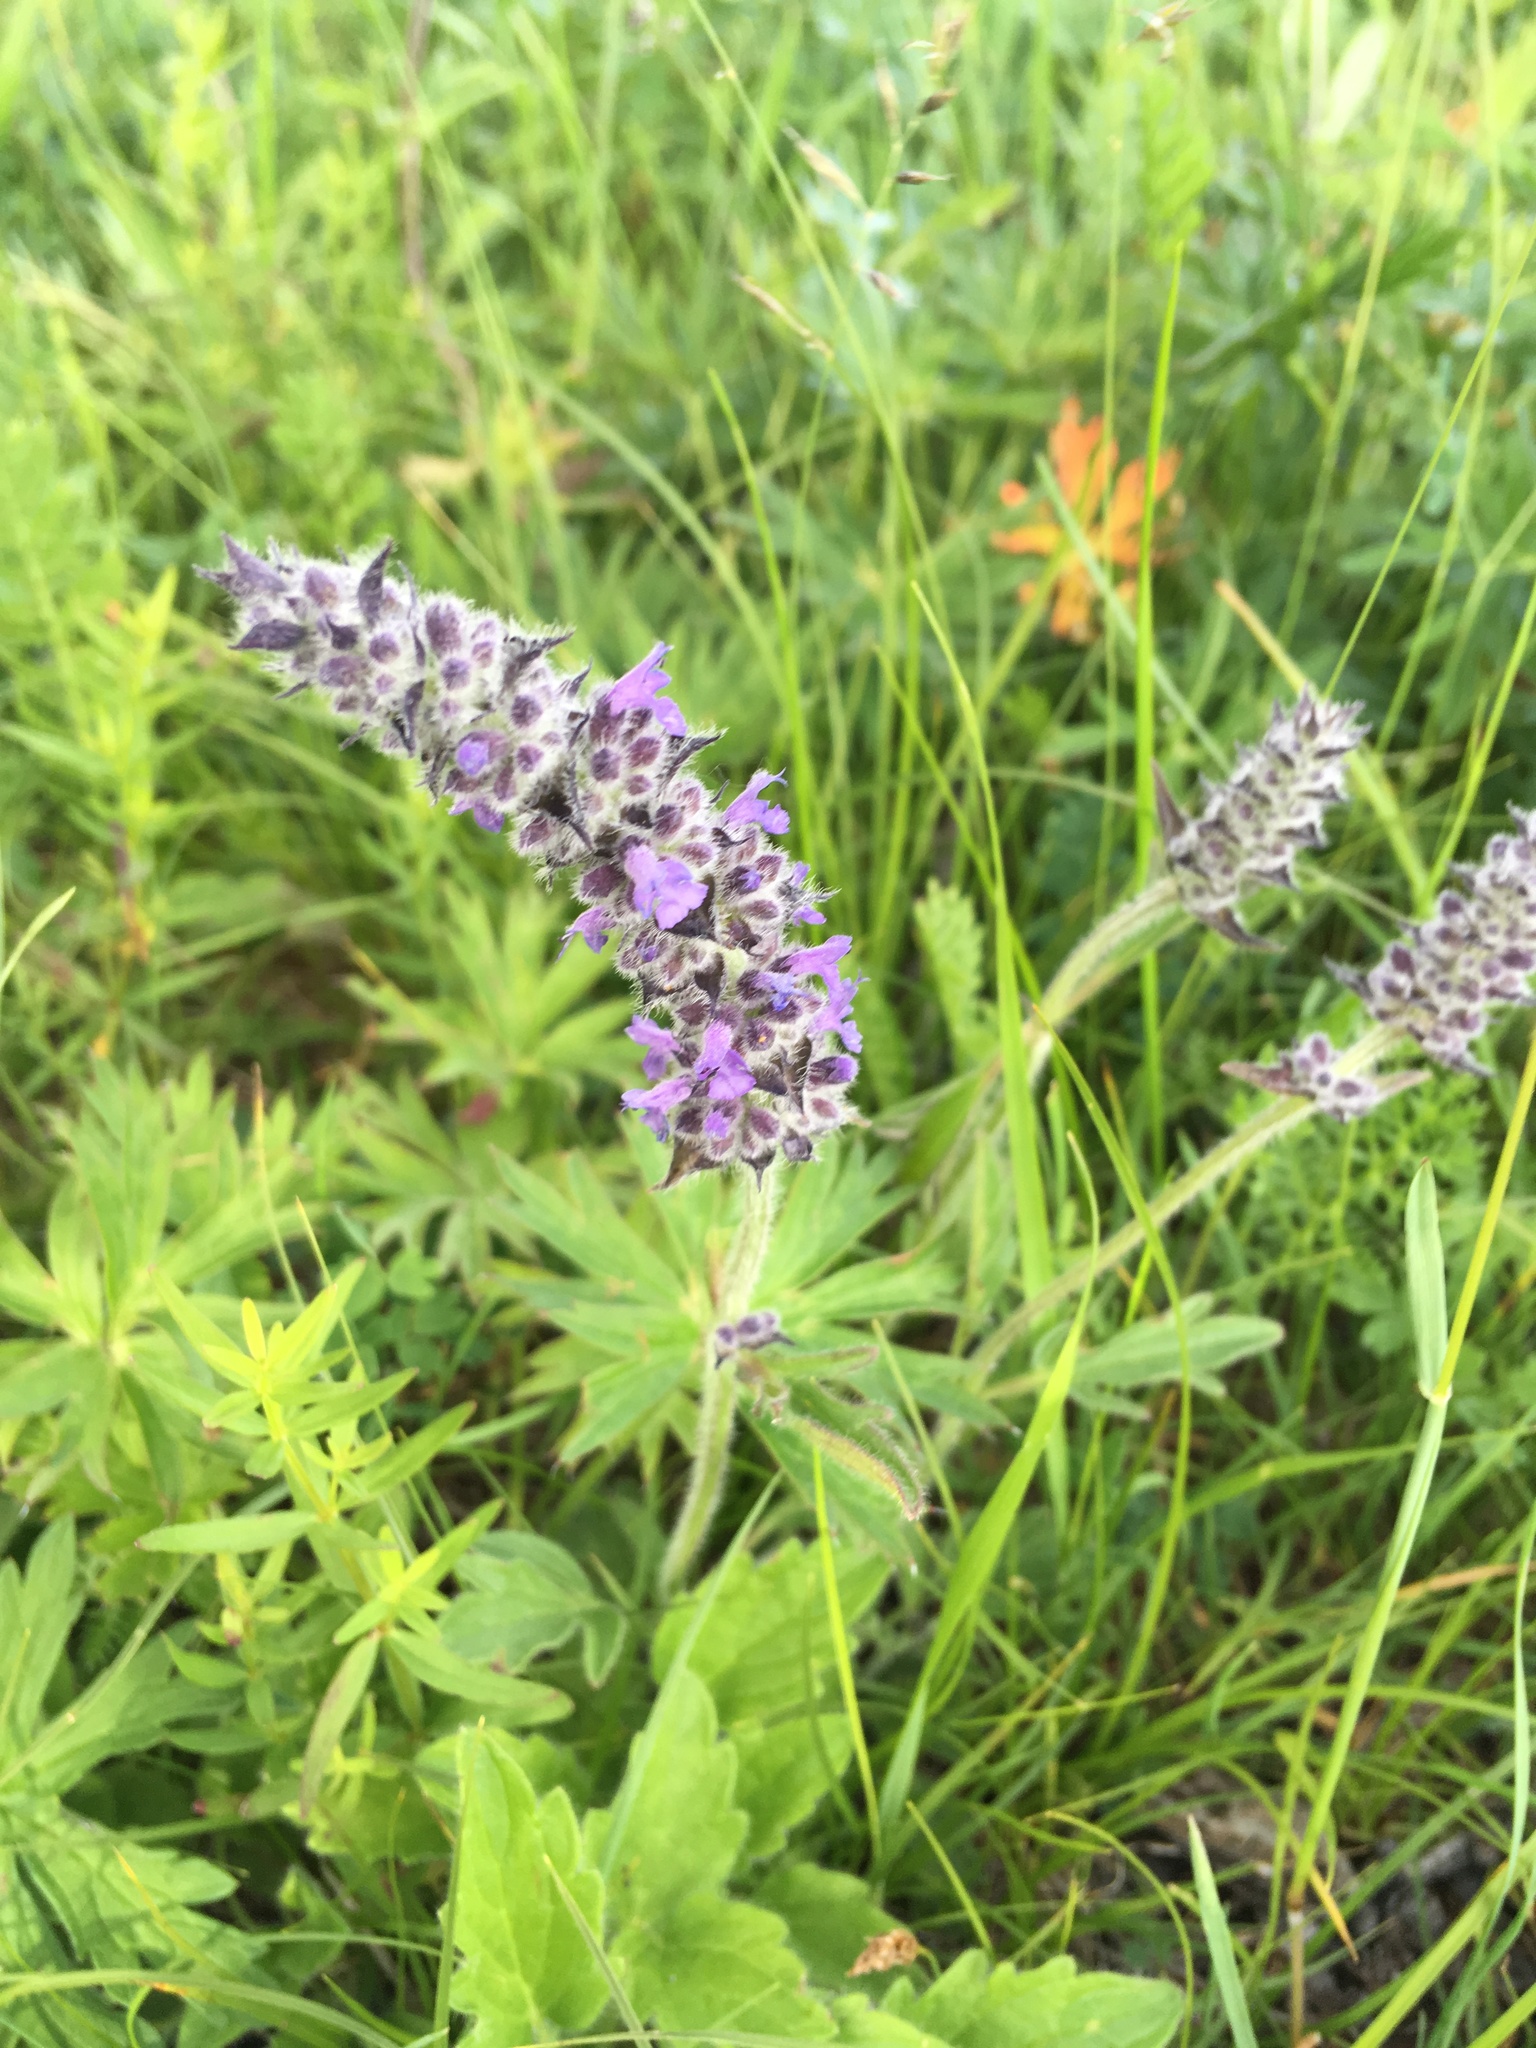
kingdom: Plantae
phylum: Tracheophyta
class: Magnoliopsida
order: Lamiales
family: Lamiaceae
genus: Nepeta
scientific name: Nepeta multifida
